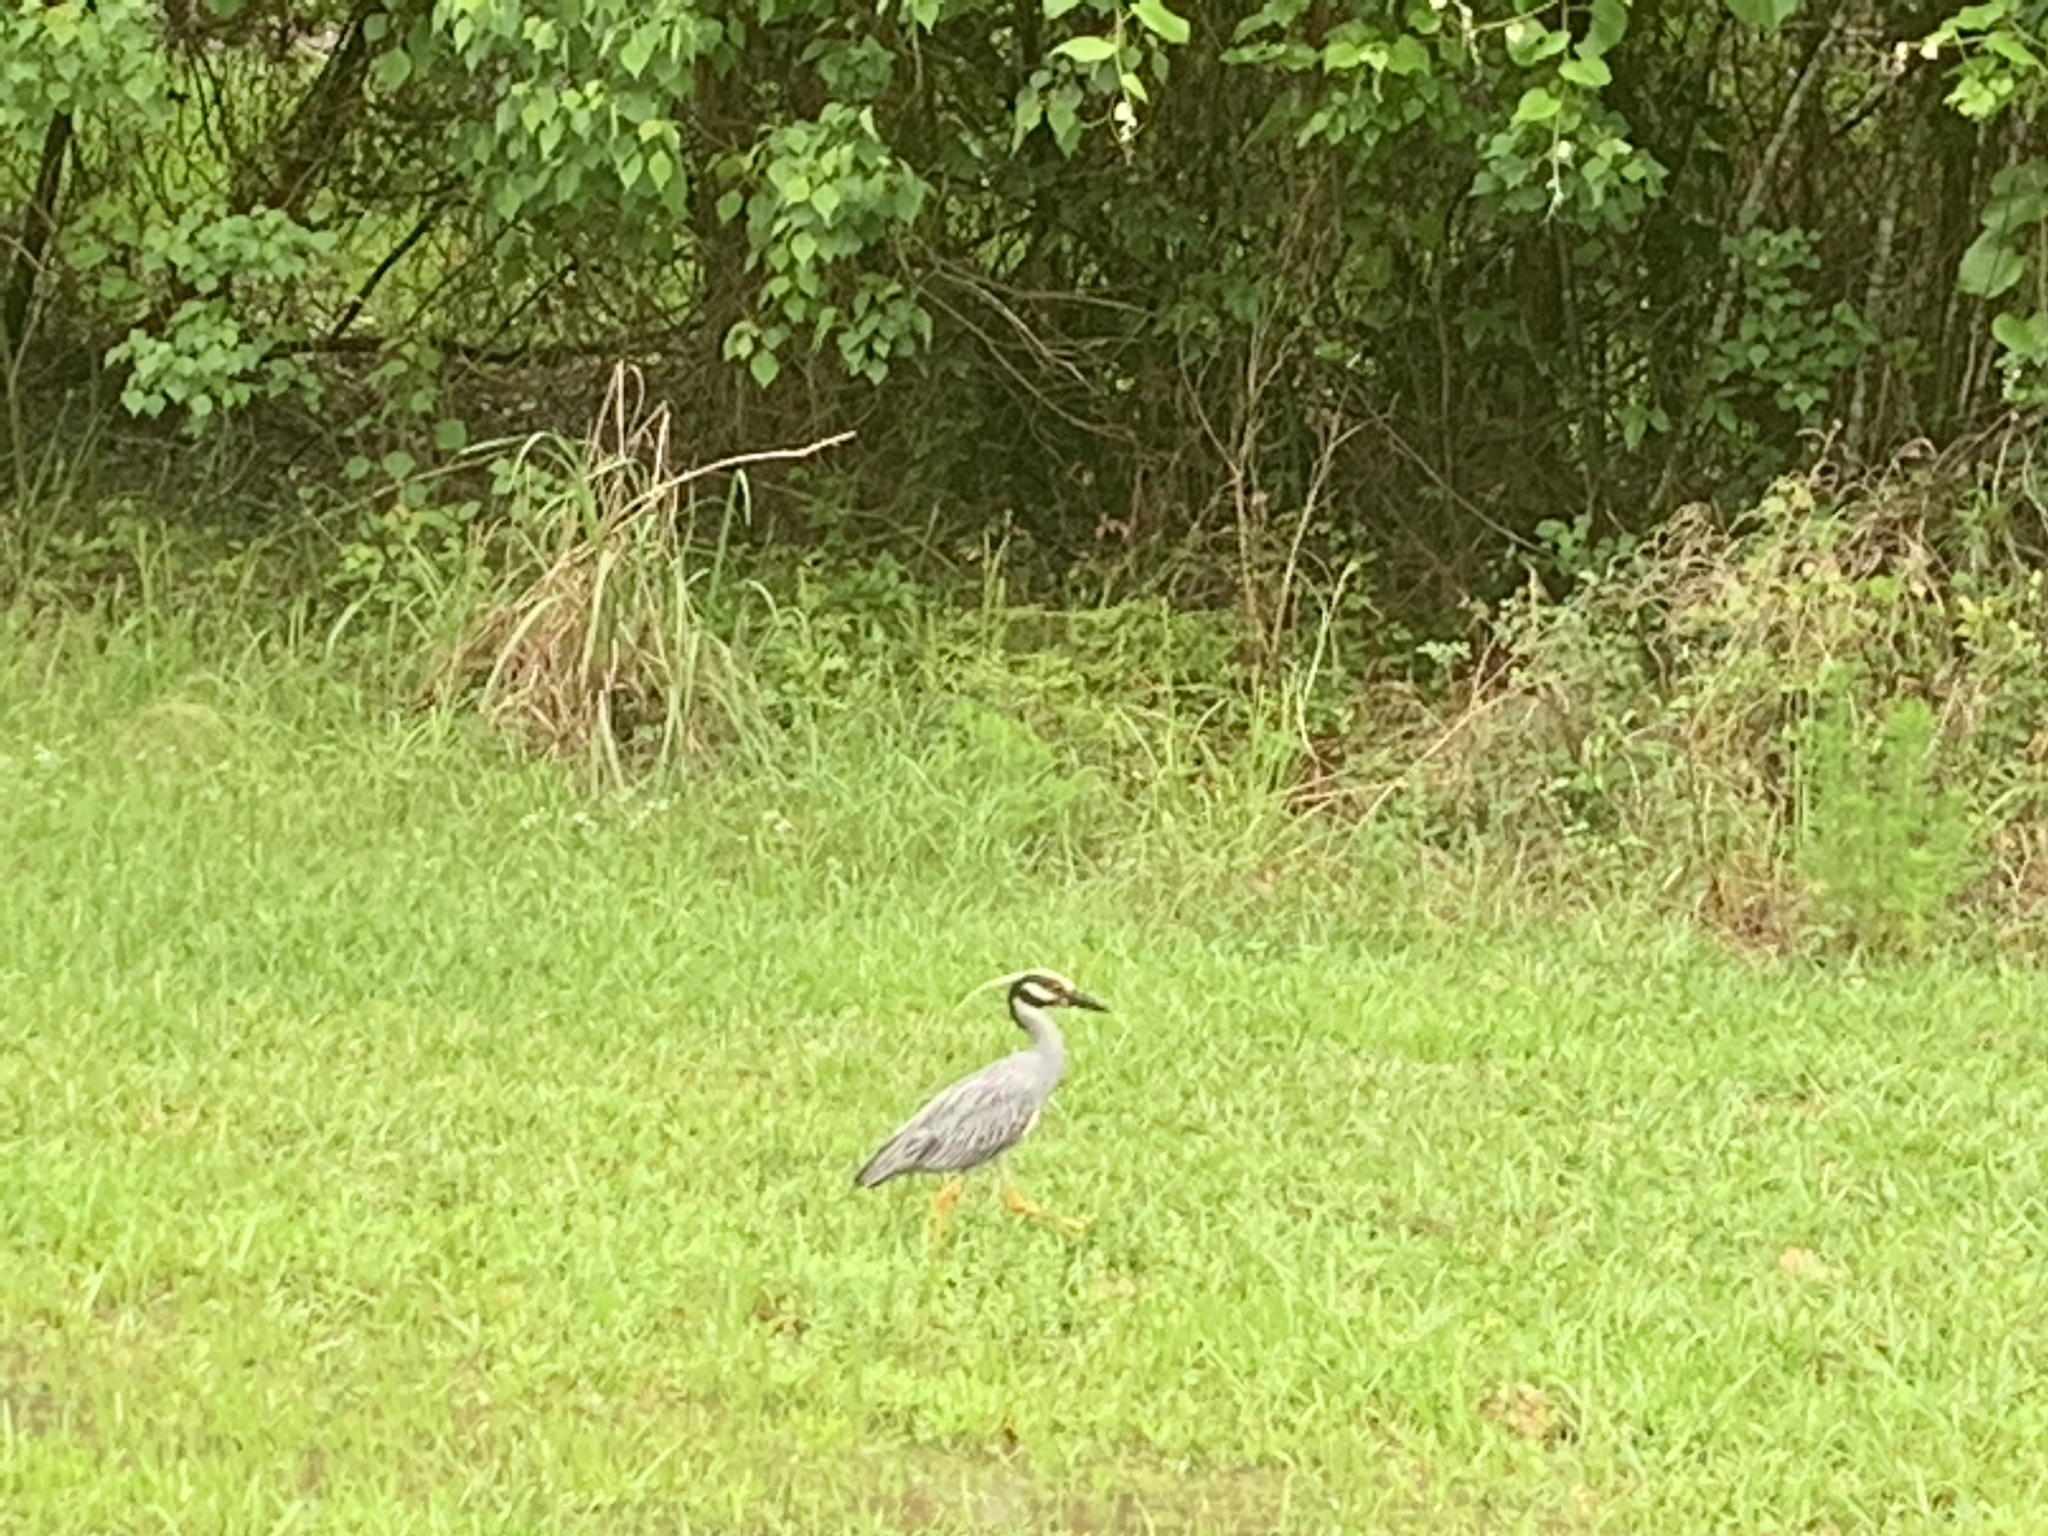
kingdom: Animalia
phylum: Chordata
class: Aves
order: Pelecaniformes
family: Ardeidae
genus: Nyctanassa
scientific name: Nyctanassa violacea
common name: Yellow-crowned night heron
